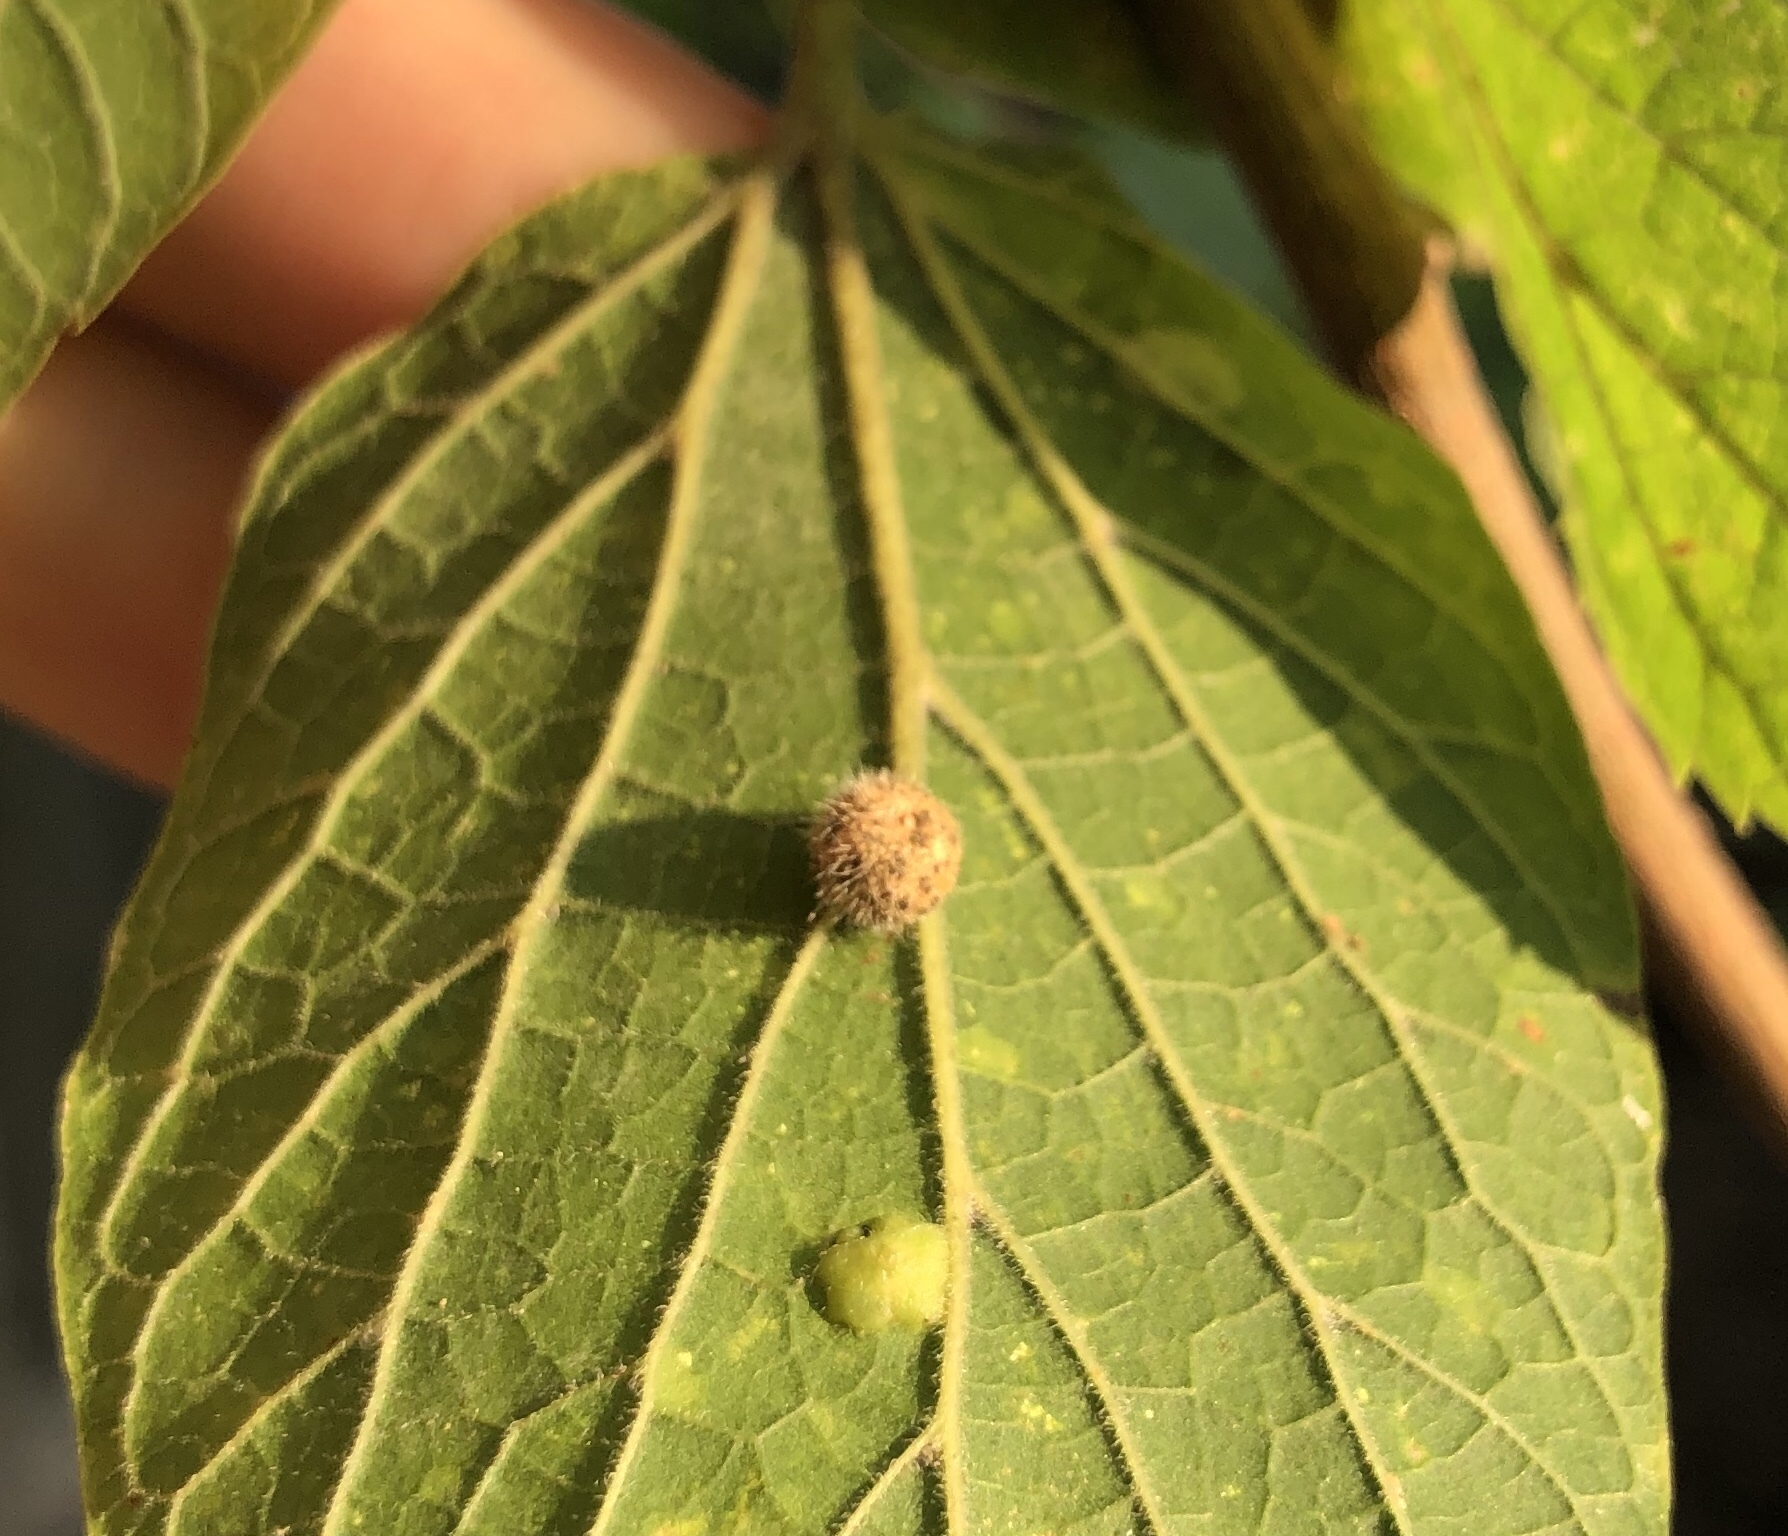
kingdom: Animalia
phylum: Arthropoda
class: Insecta
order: Diptera
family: Cecidomyiidae
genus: Celticecis
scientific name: Celticecis pubescens
